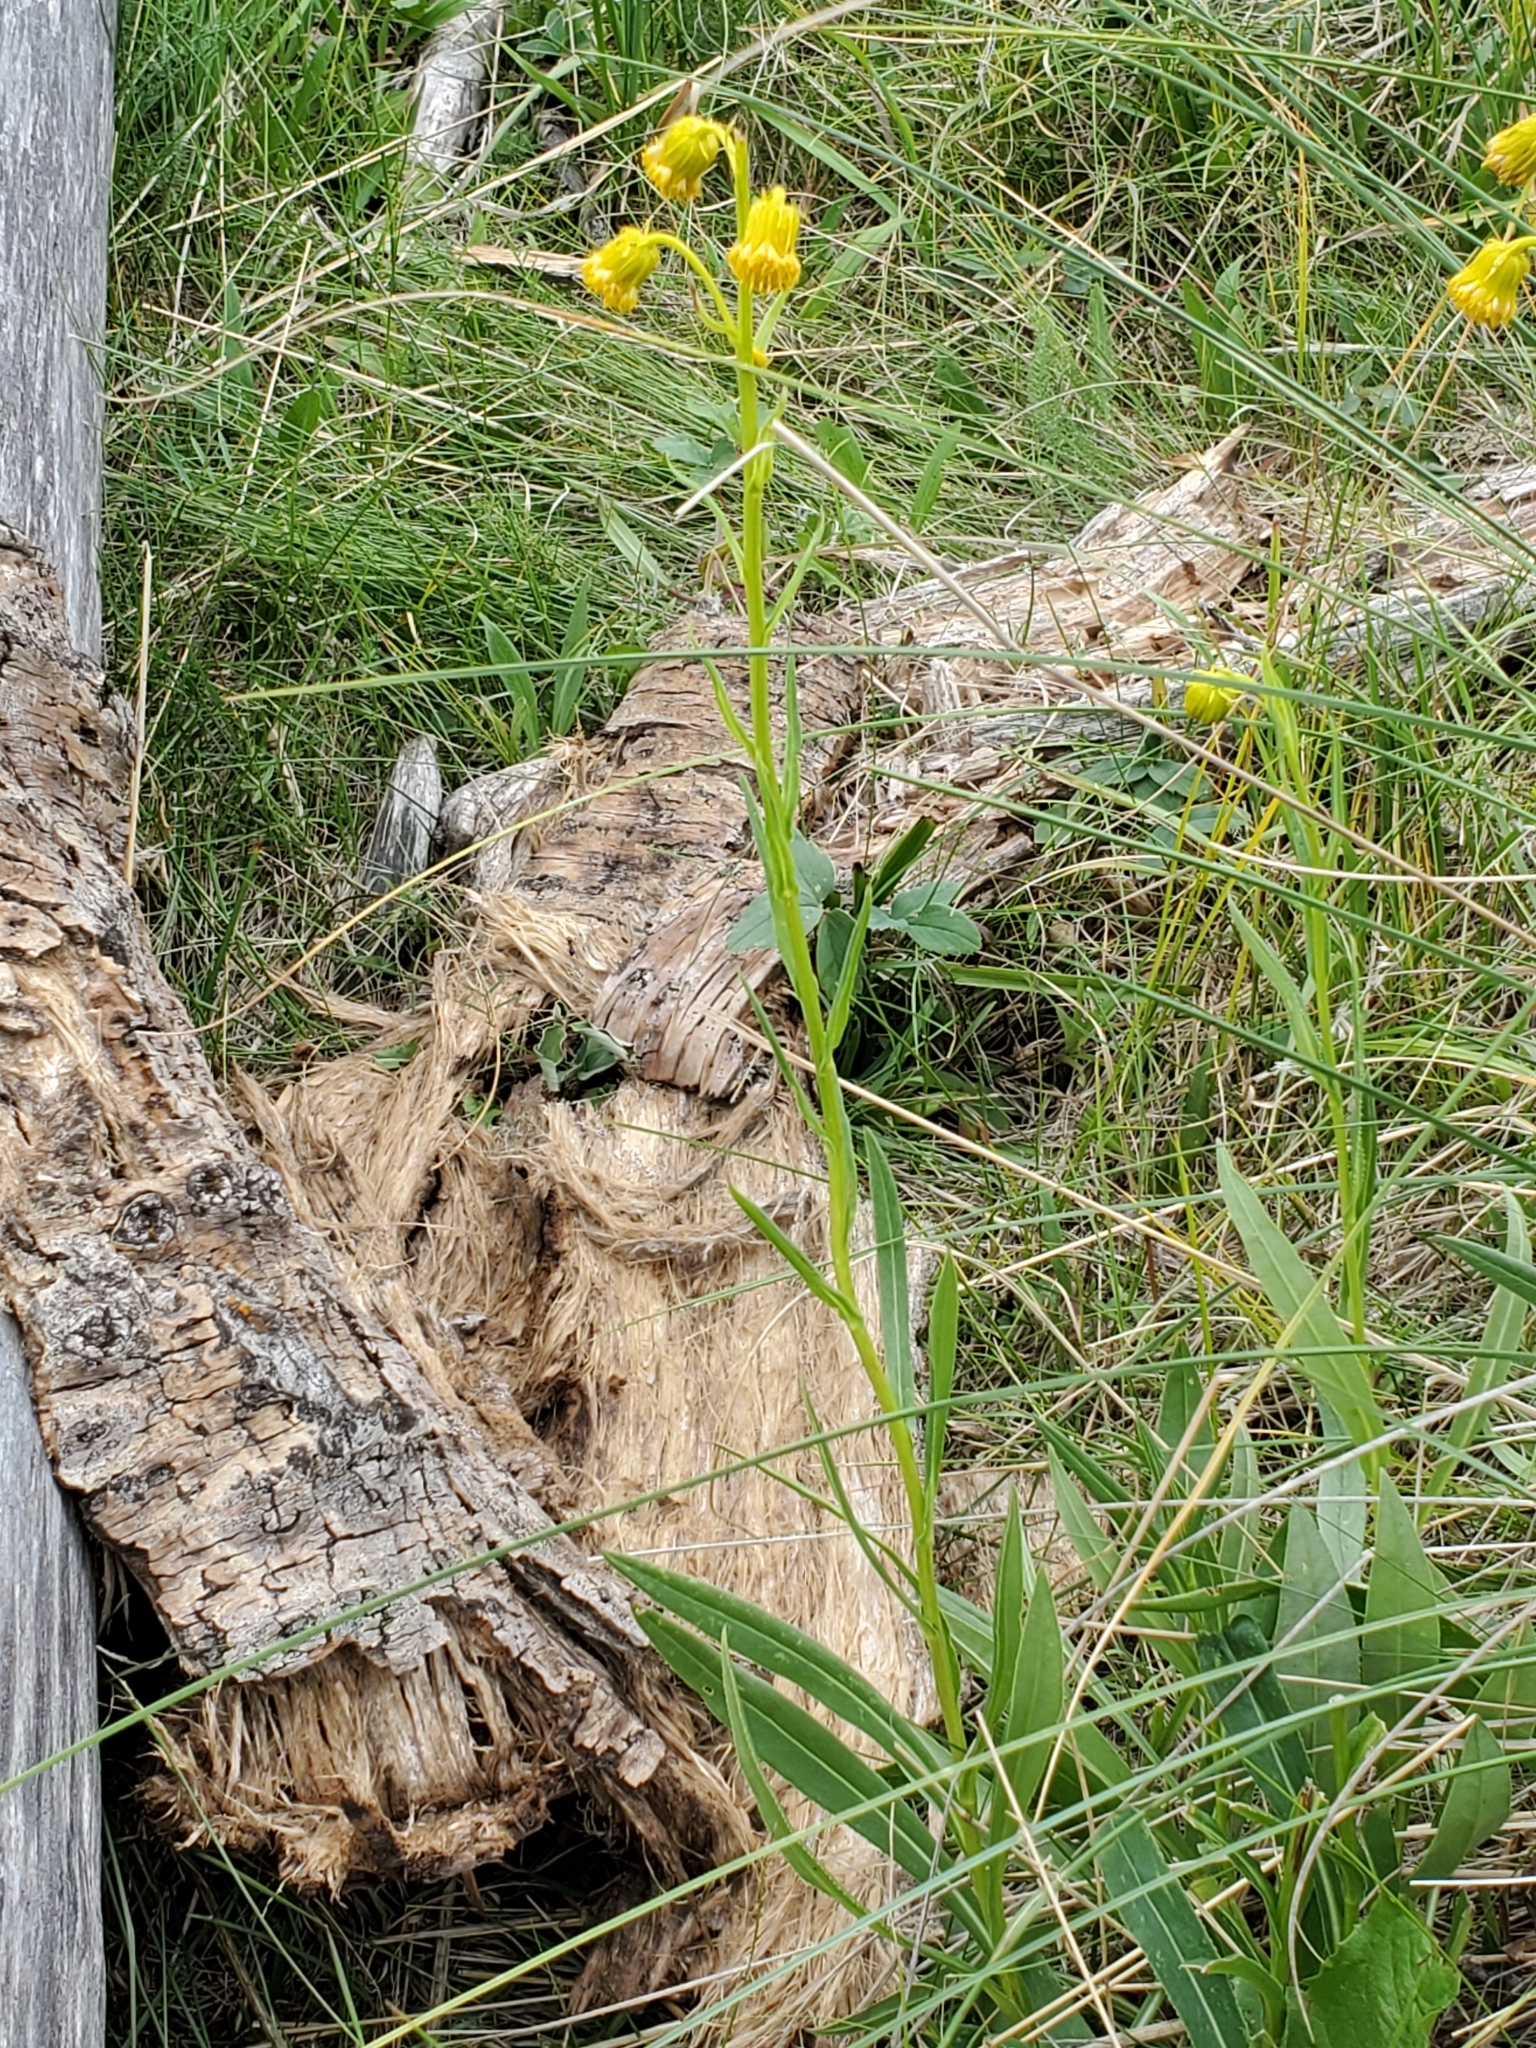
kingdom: Plantae
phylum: Tracheophyta
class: Magnoliopsida
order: Asterales
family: Asteraceae
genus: Senecio
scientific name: Senecio bigelovii
